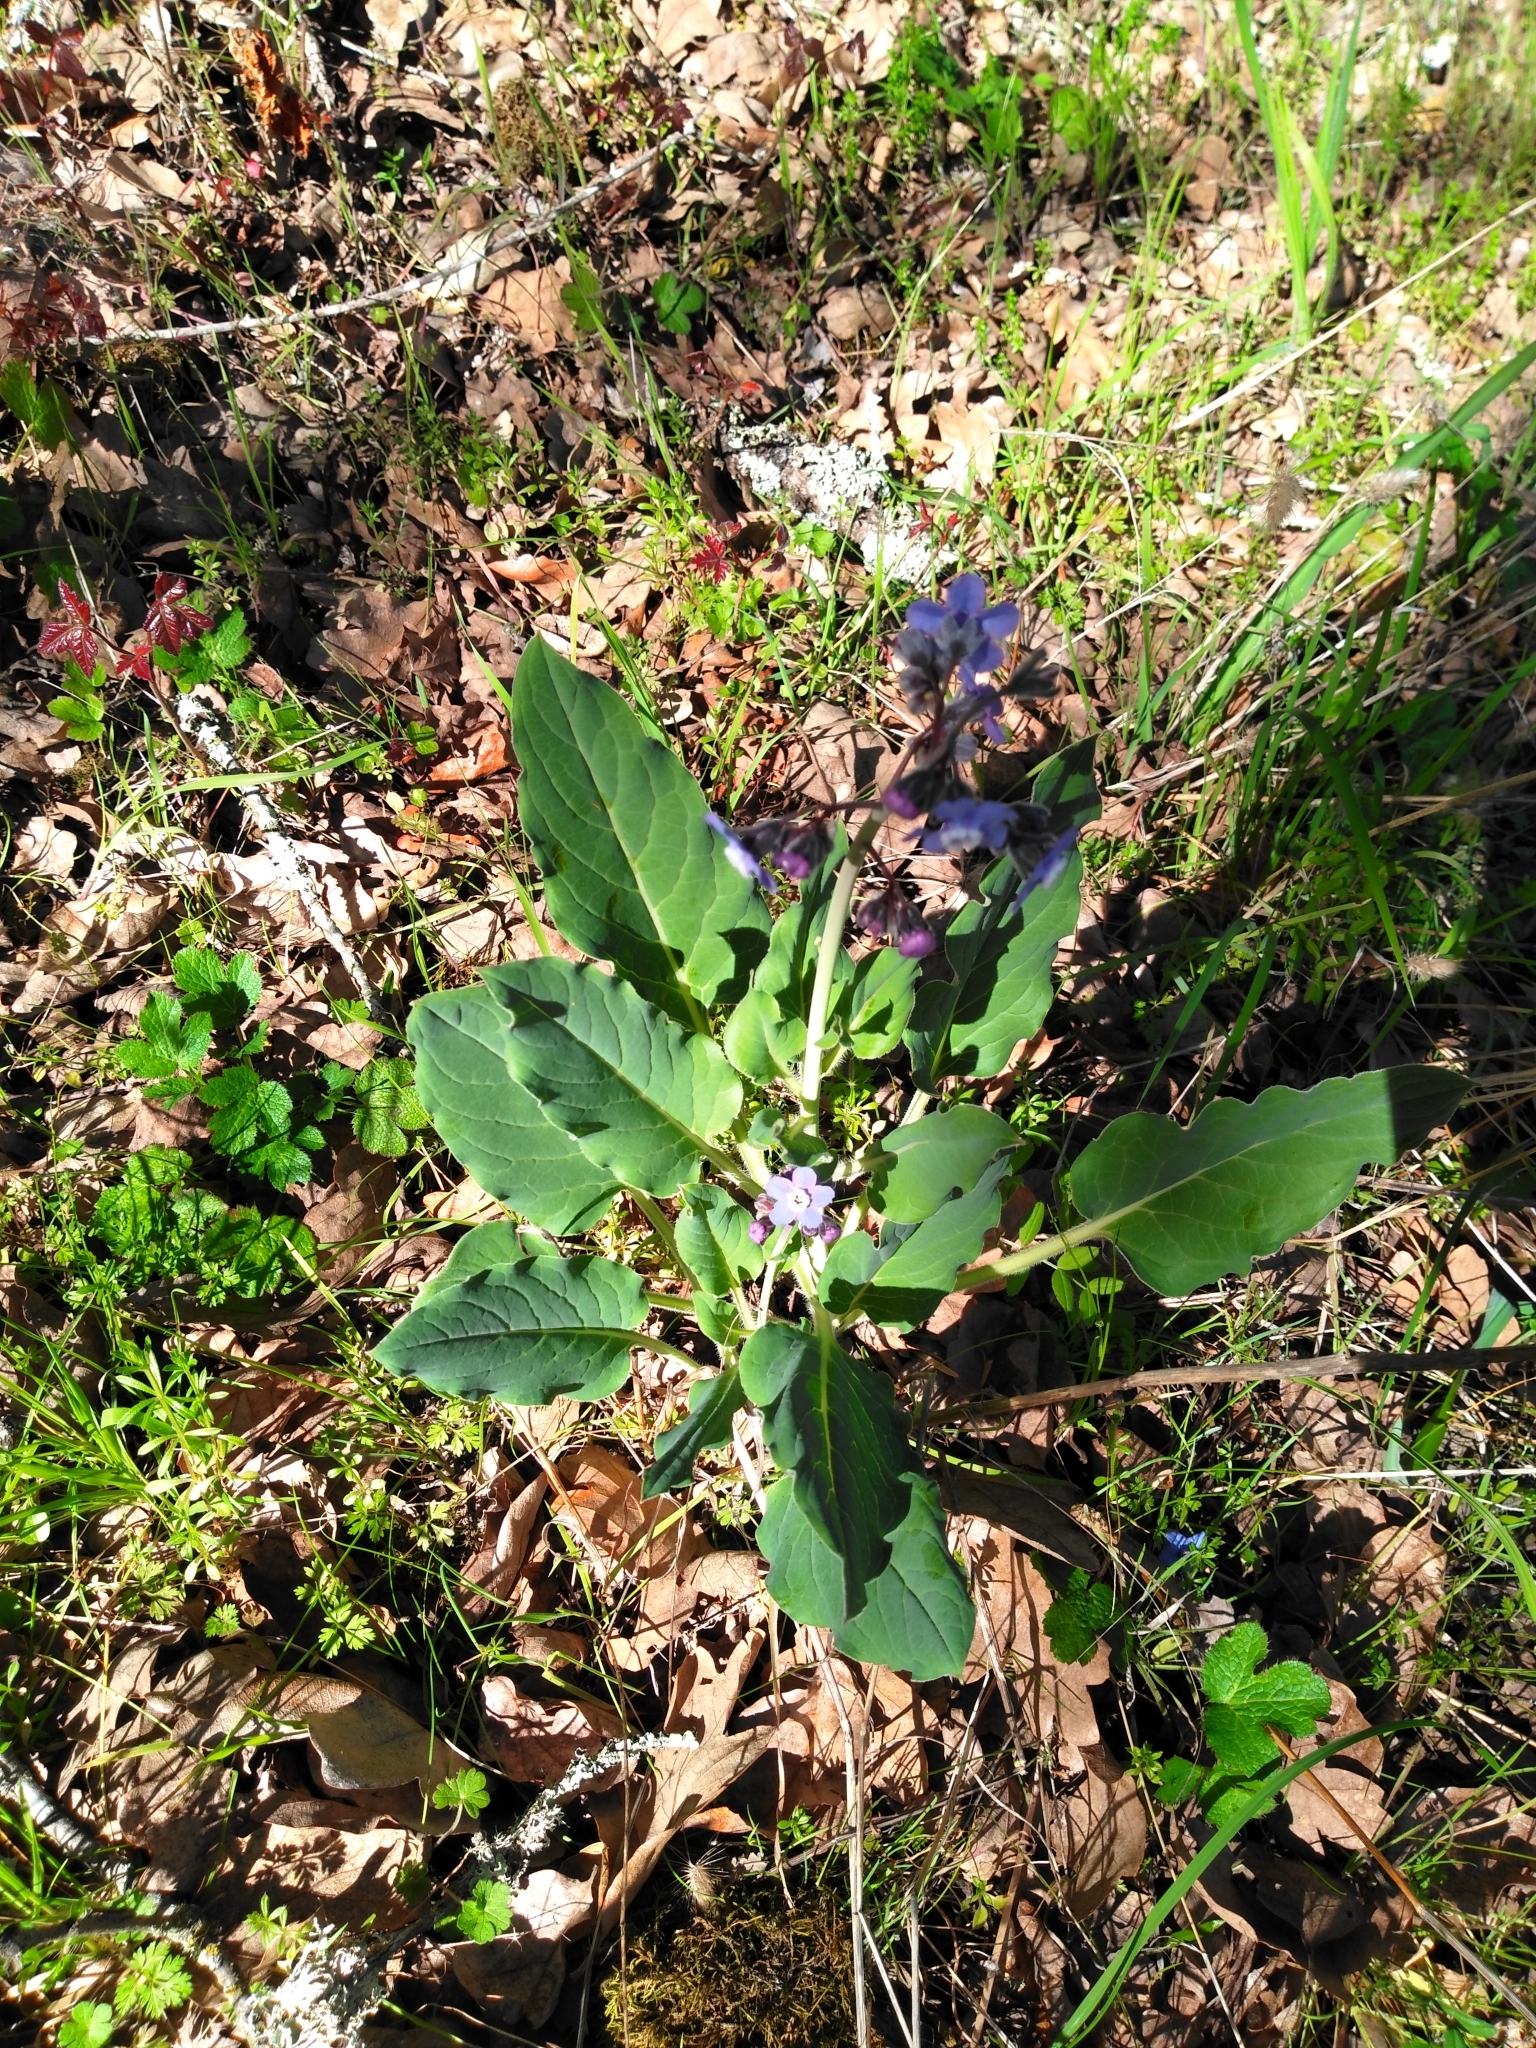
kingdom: Plantae
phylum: Tracheophyta
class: Magnoliopsida
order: Boraginales
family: Boraginaceae
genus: Adelinia
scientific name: Adelinia grande
